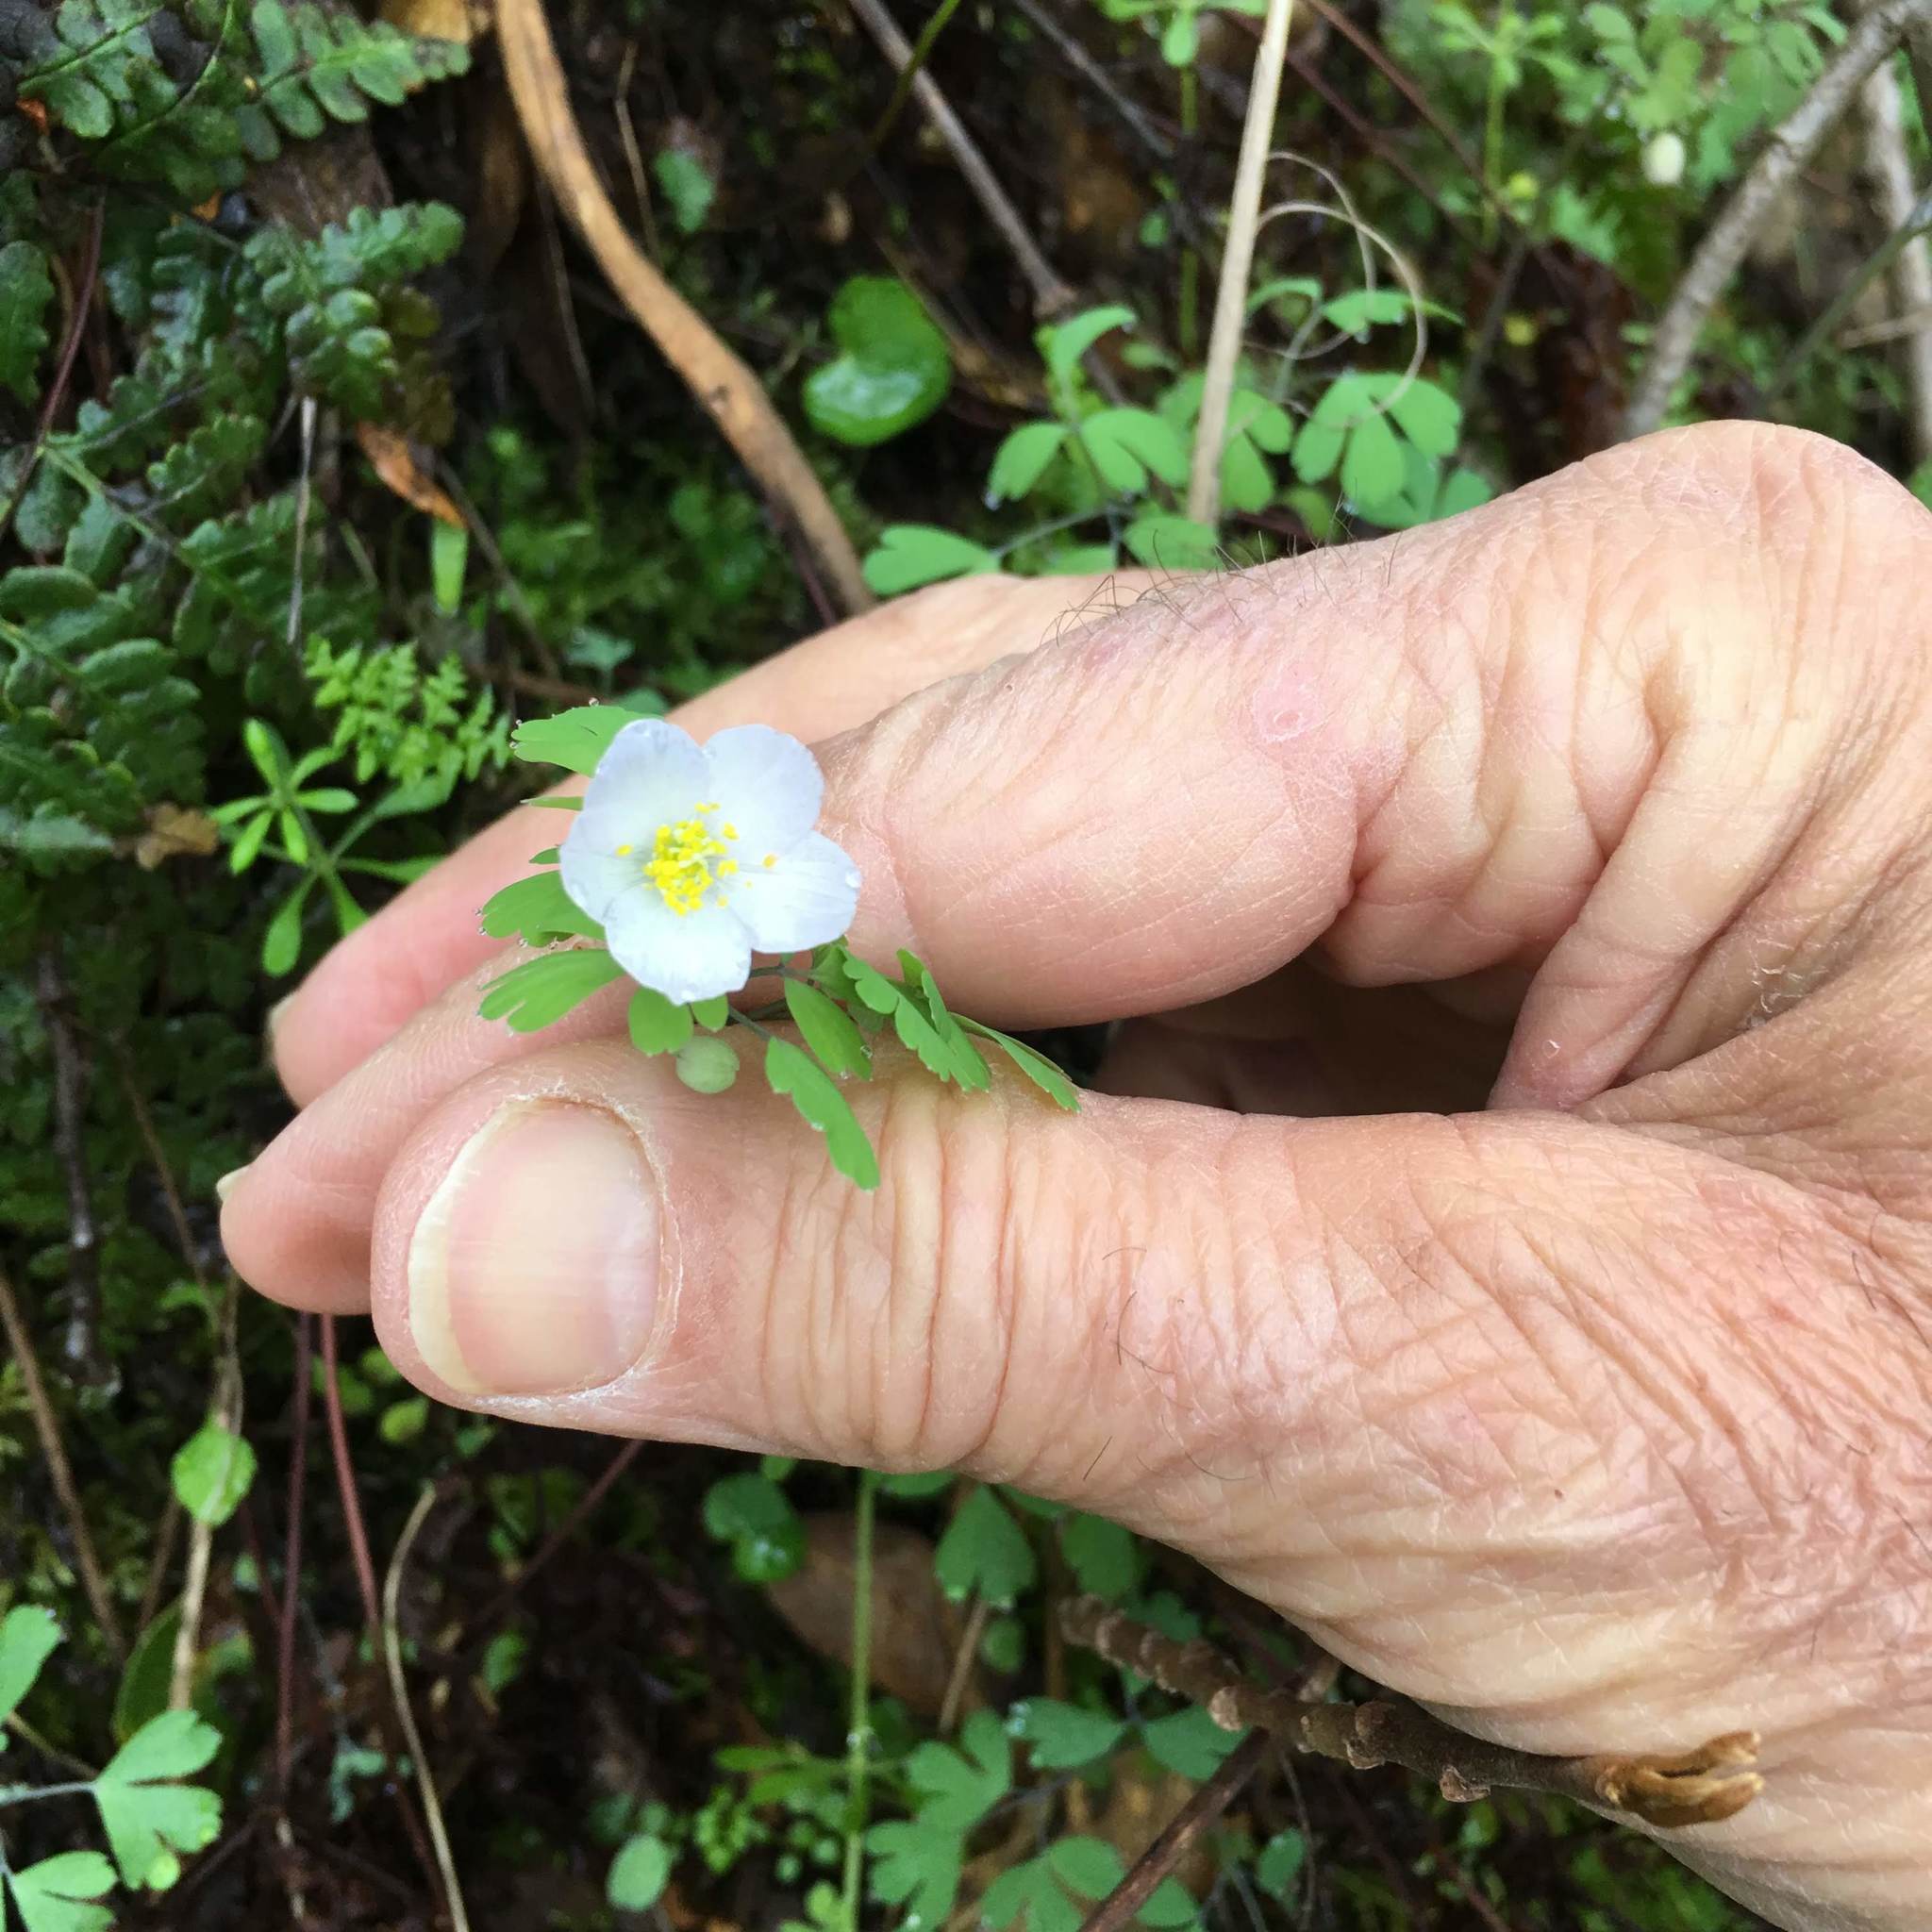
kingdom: Plantae
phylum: Tracheophyta
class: Magnoliopsida
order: Ranunculales
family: Ranunculaceae
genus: Enemion
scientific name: Enemion occidentale
